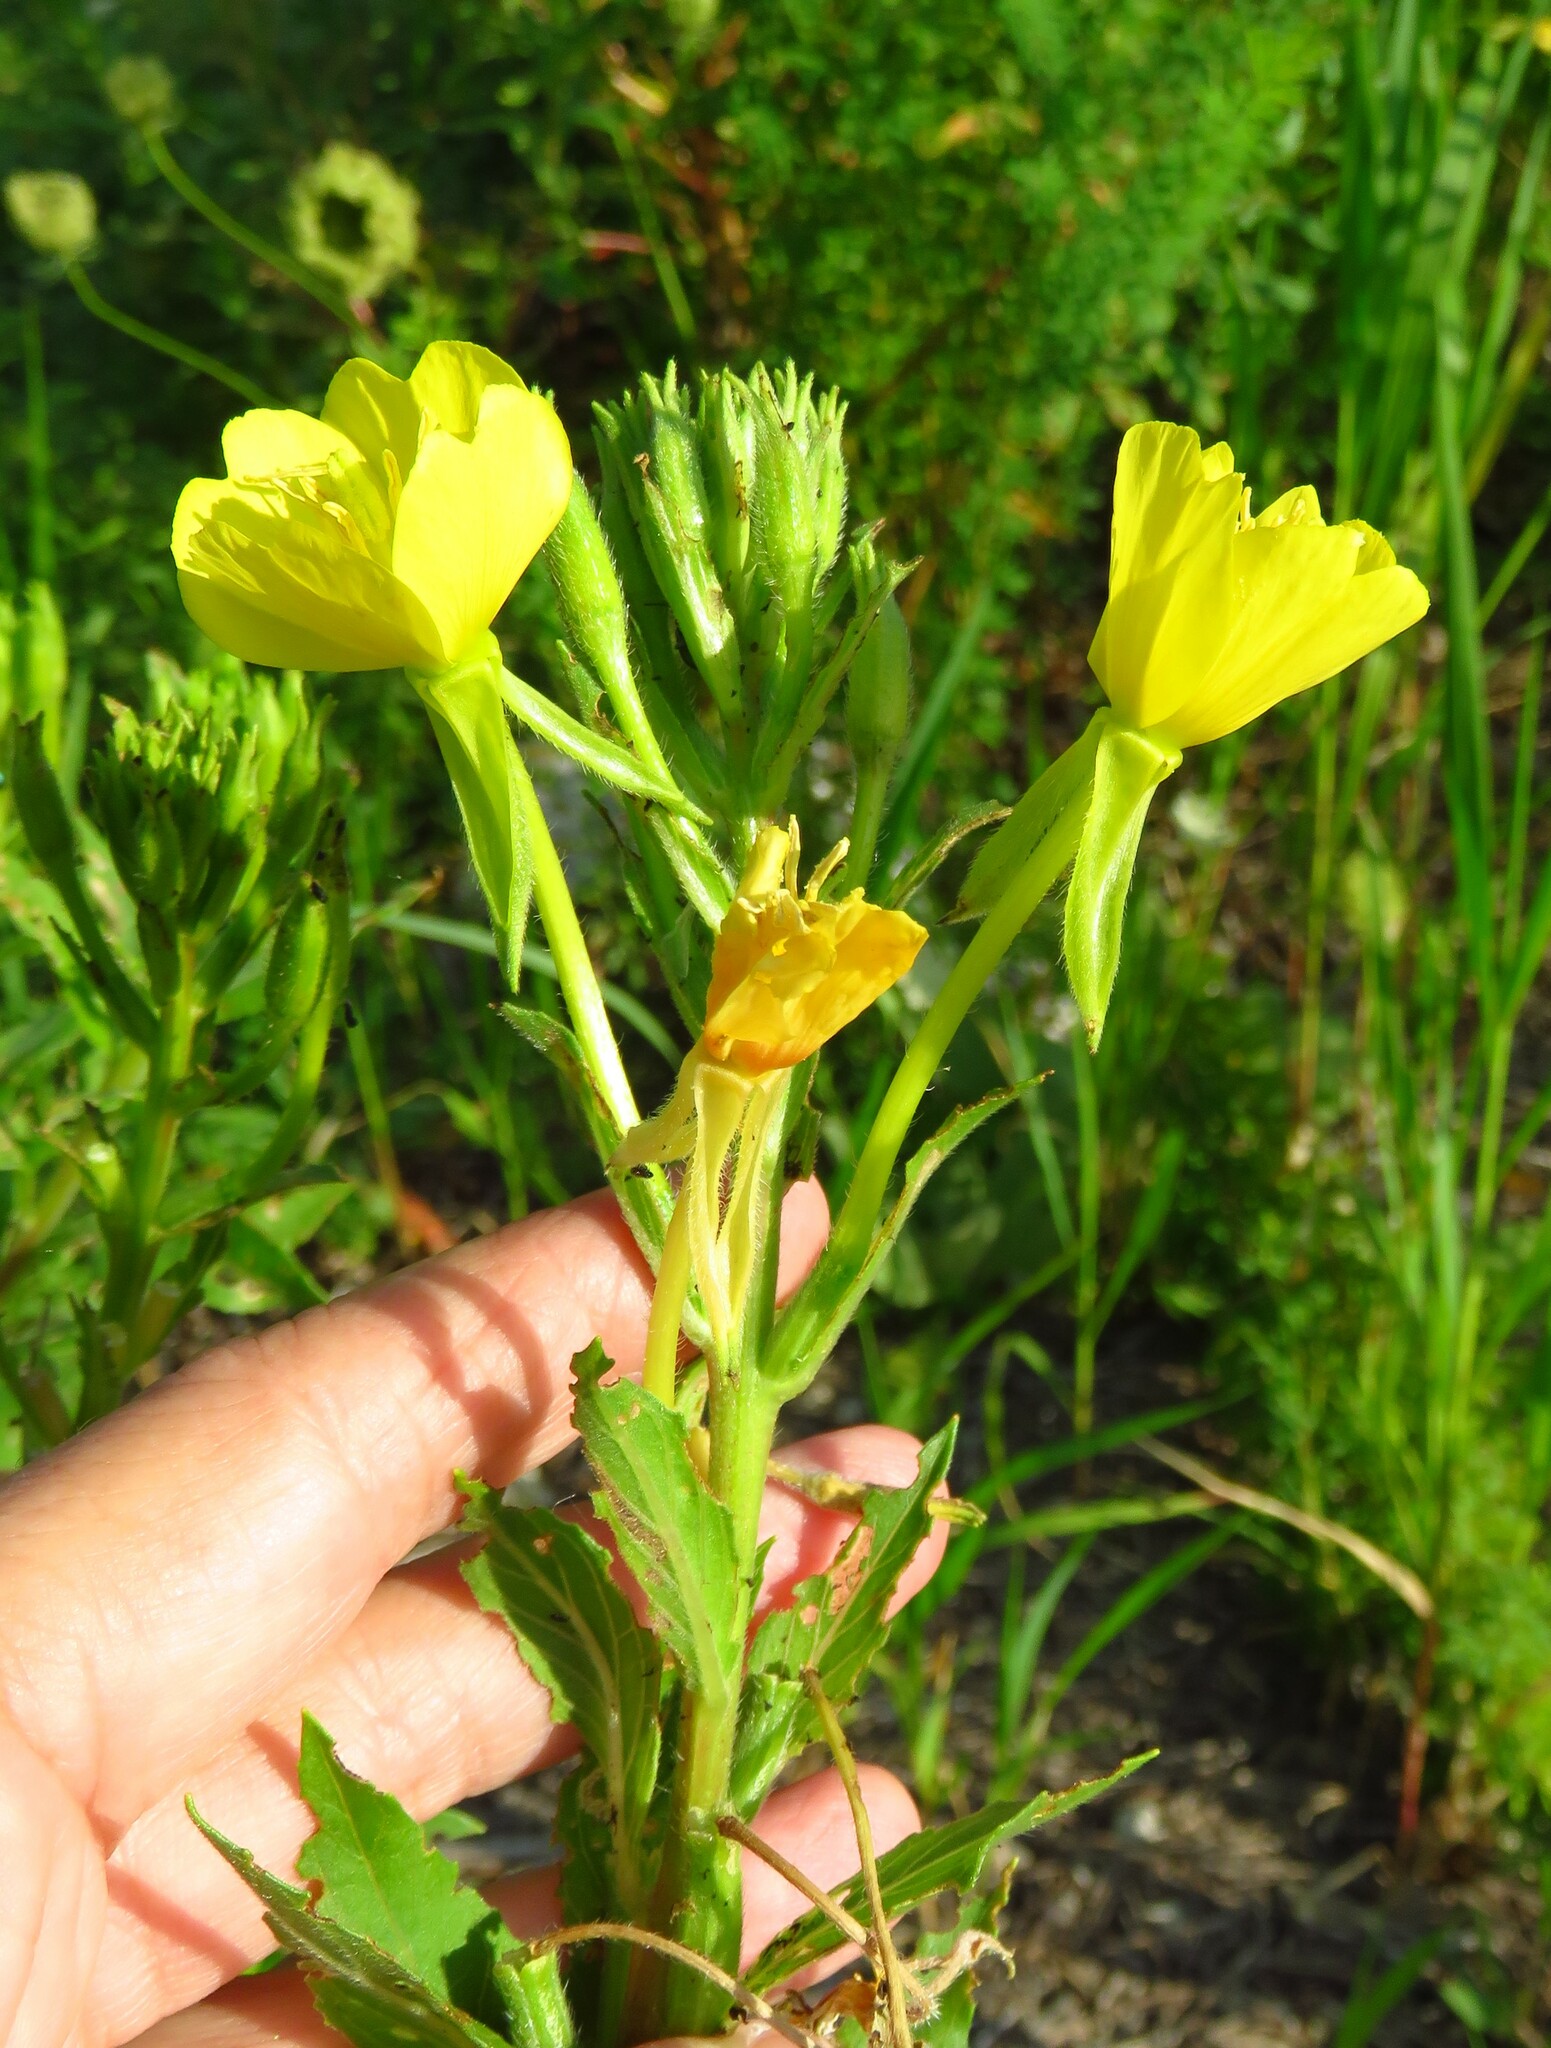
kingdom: Plantae
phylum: Tracheophyta
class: Magnoliopsida
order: Myrtales
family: Onagraceae
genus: Oenothera
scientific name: Oenothera biennis
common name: Common evening-primrose
